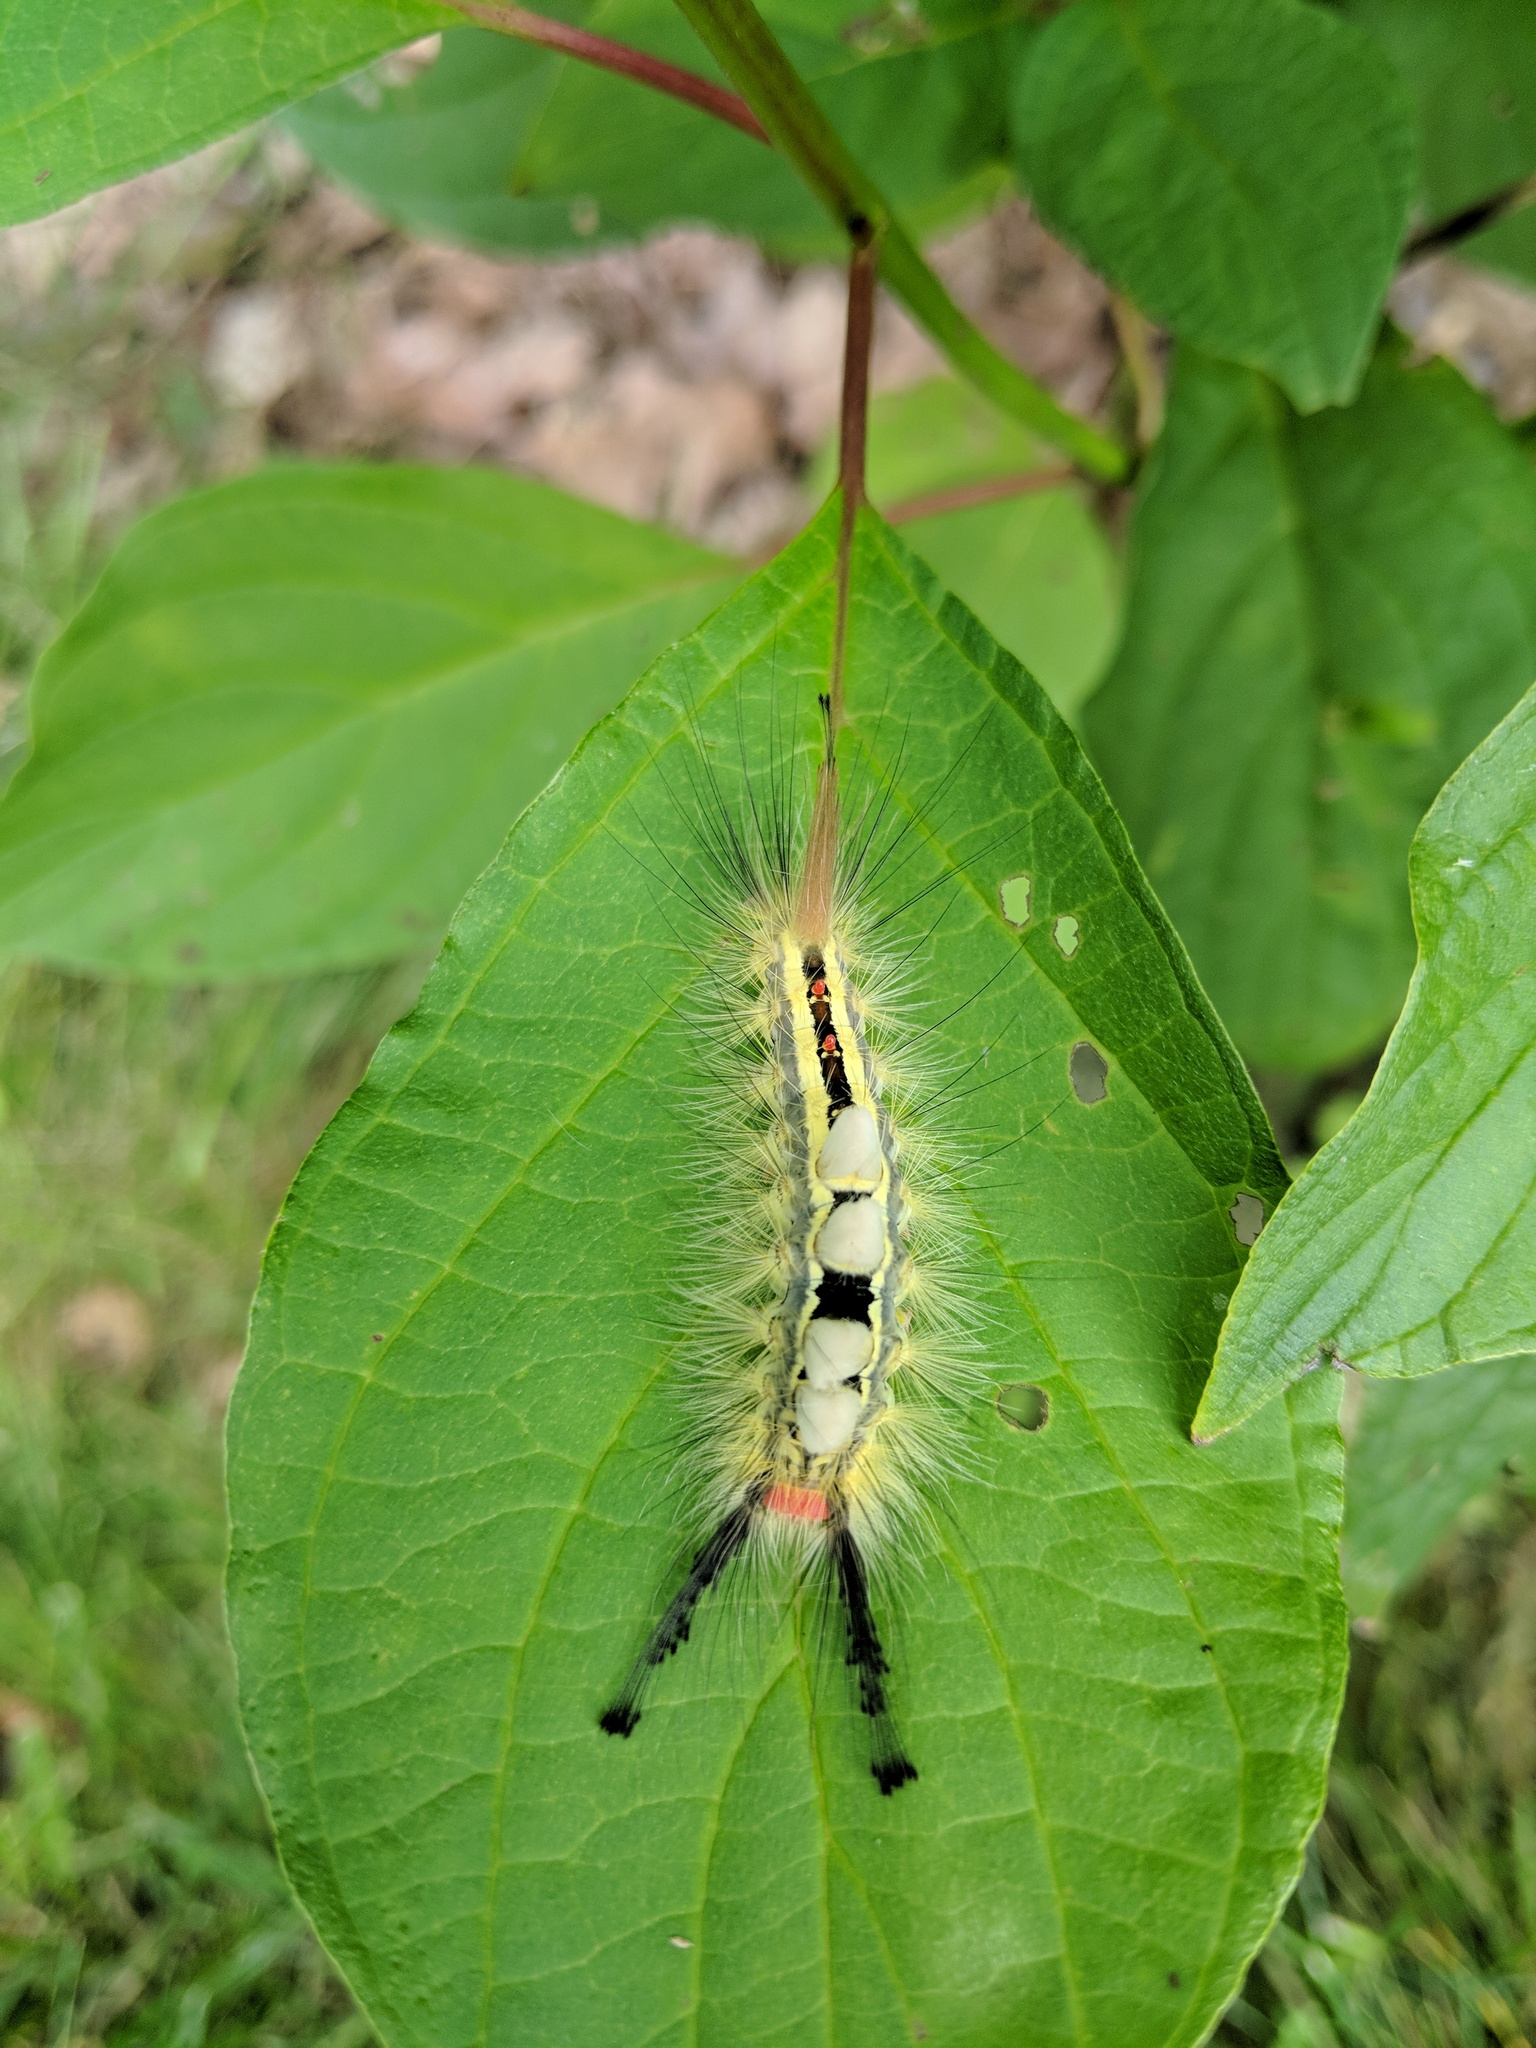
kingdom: Animalia
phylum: Arthropoda
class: Insecta
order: Lepidoptera
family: Erebidae
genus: Orgyia
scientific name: Orgyia leucostigma
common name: White-marked tussock moth
